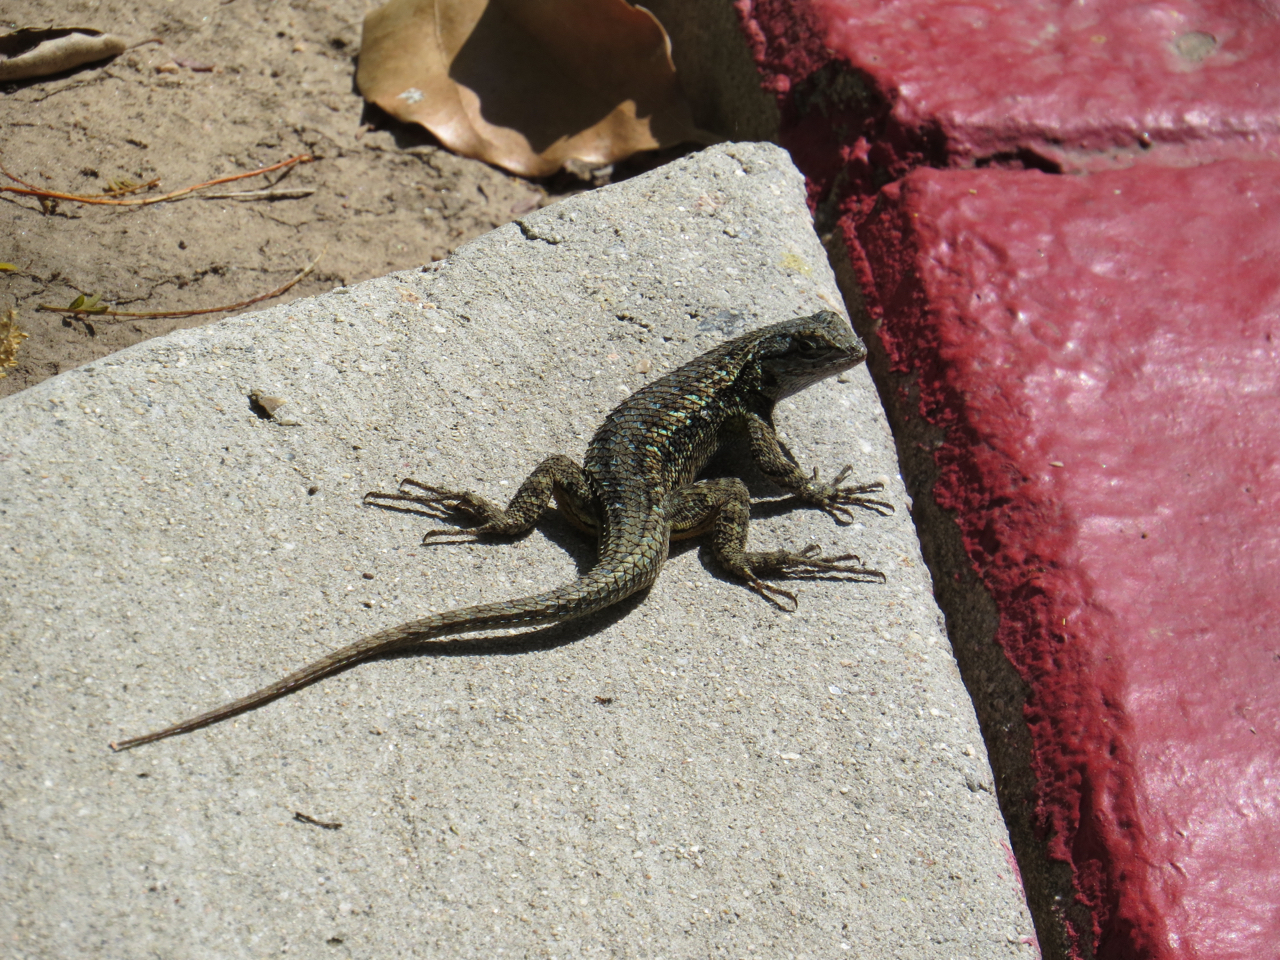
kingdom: Animalia
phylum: Chordata
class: Squamata
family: Phrynosomatidae
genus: Sceloporus
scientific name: Sceloporus occidentalis
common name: Western fence lizard
